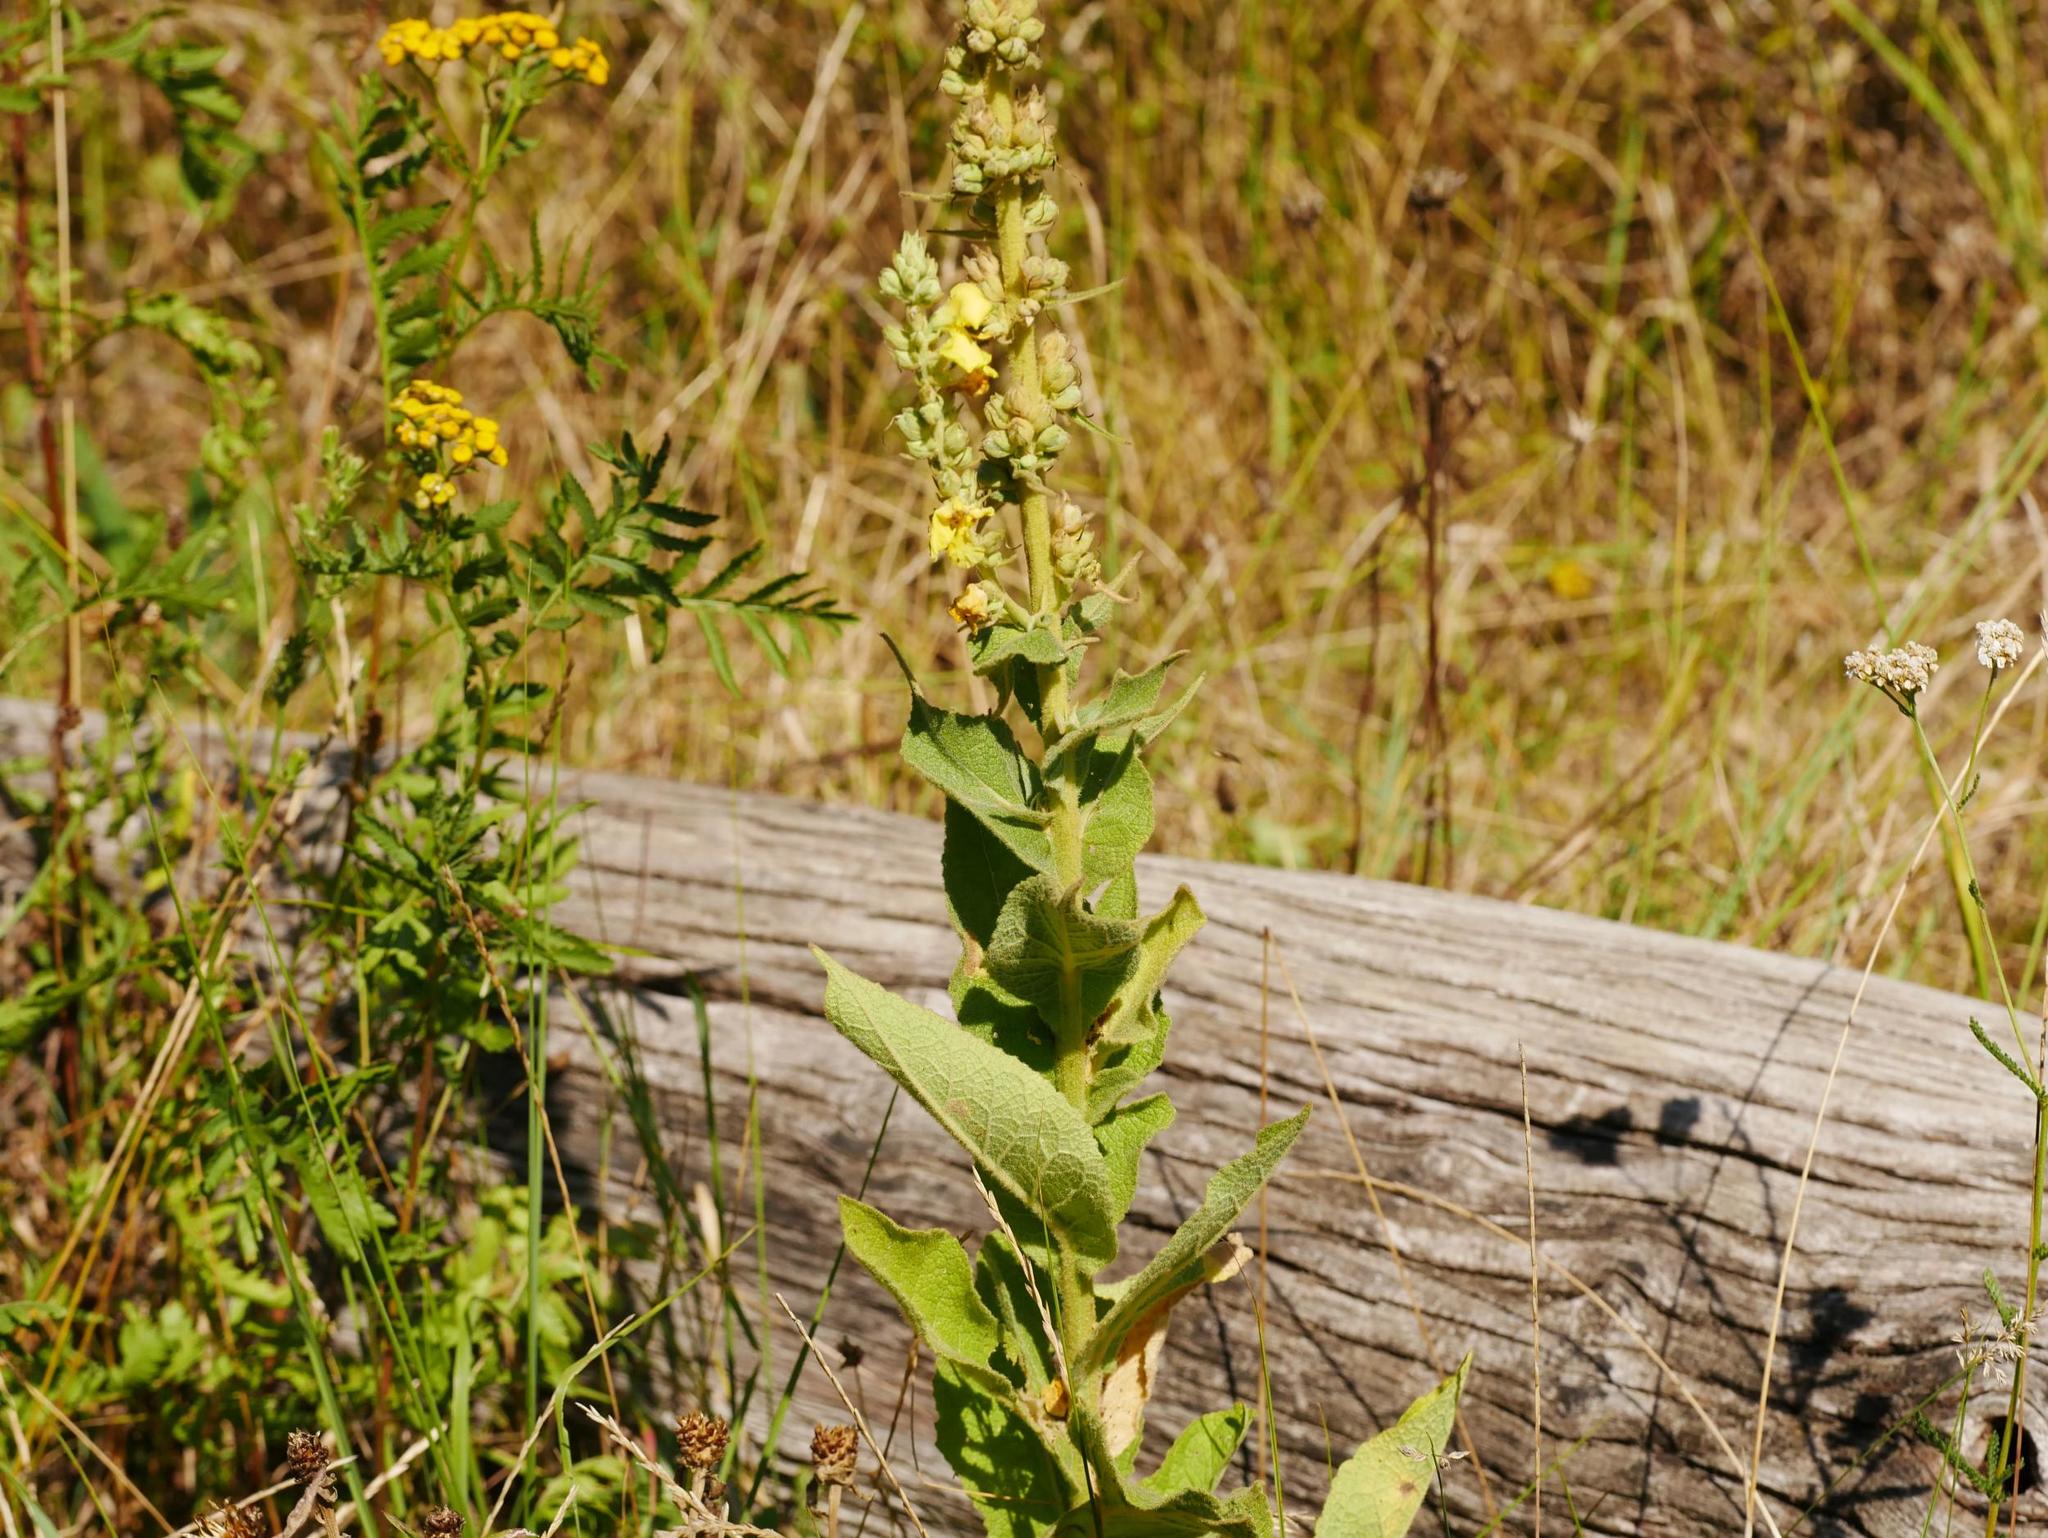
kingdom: Plantae
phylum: Tracheophyta
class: Magnoliopsida
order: Asterales
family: Asteraceae
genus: Tanacetum
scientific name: Tanacetum vulgare
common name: Common tansy
